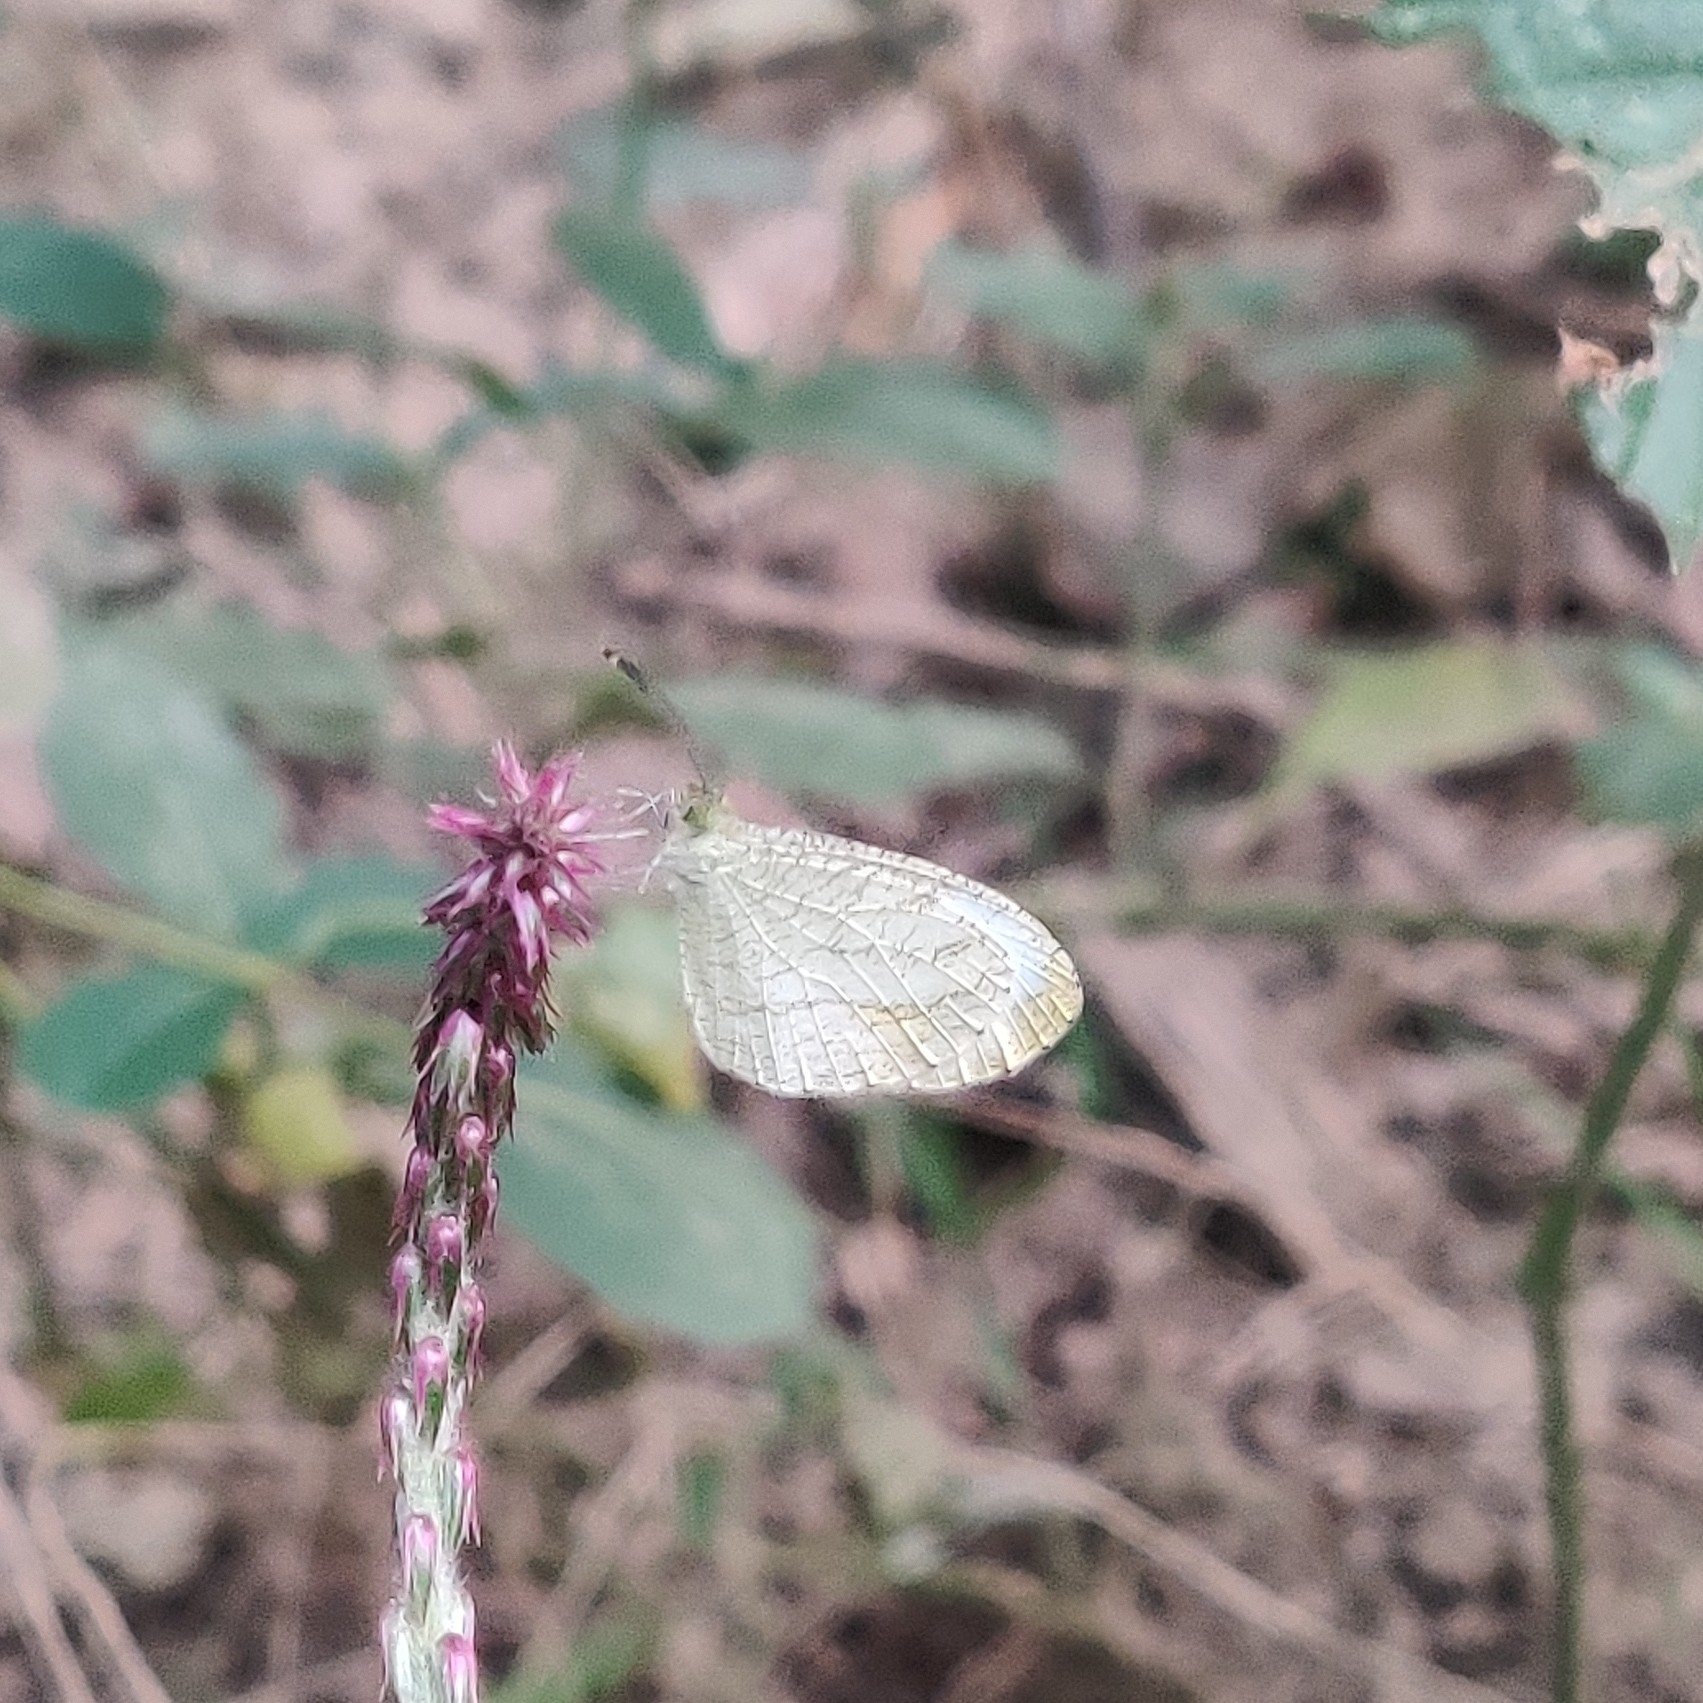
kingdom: Animalia
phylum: Arthropoda
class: Insecta
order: Lepidoptera
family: Pieridae
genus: Leptosia
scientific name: Leptosia nina
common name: Psyche
